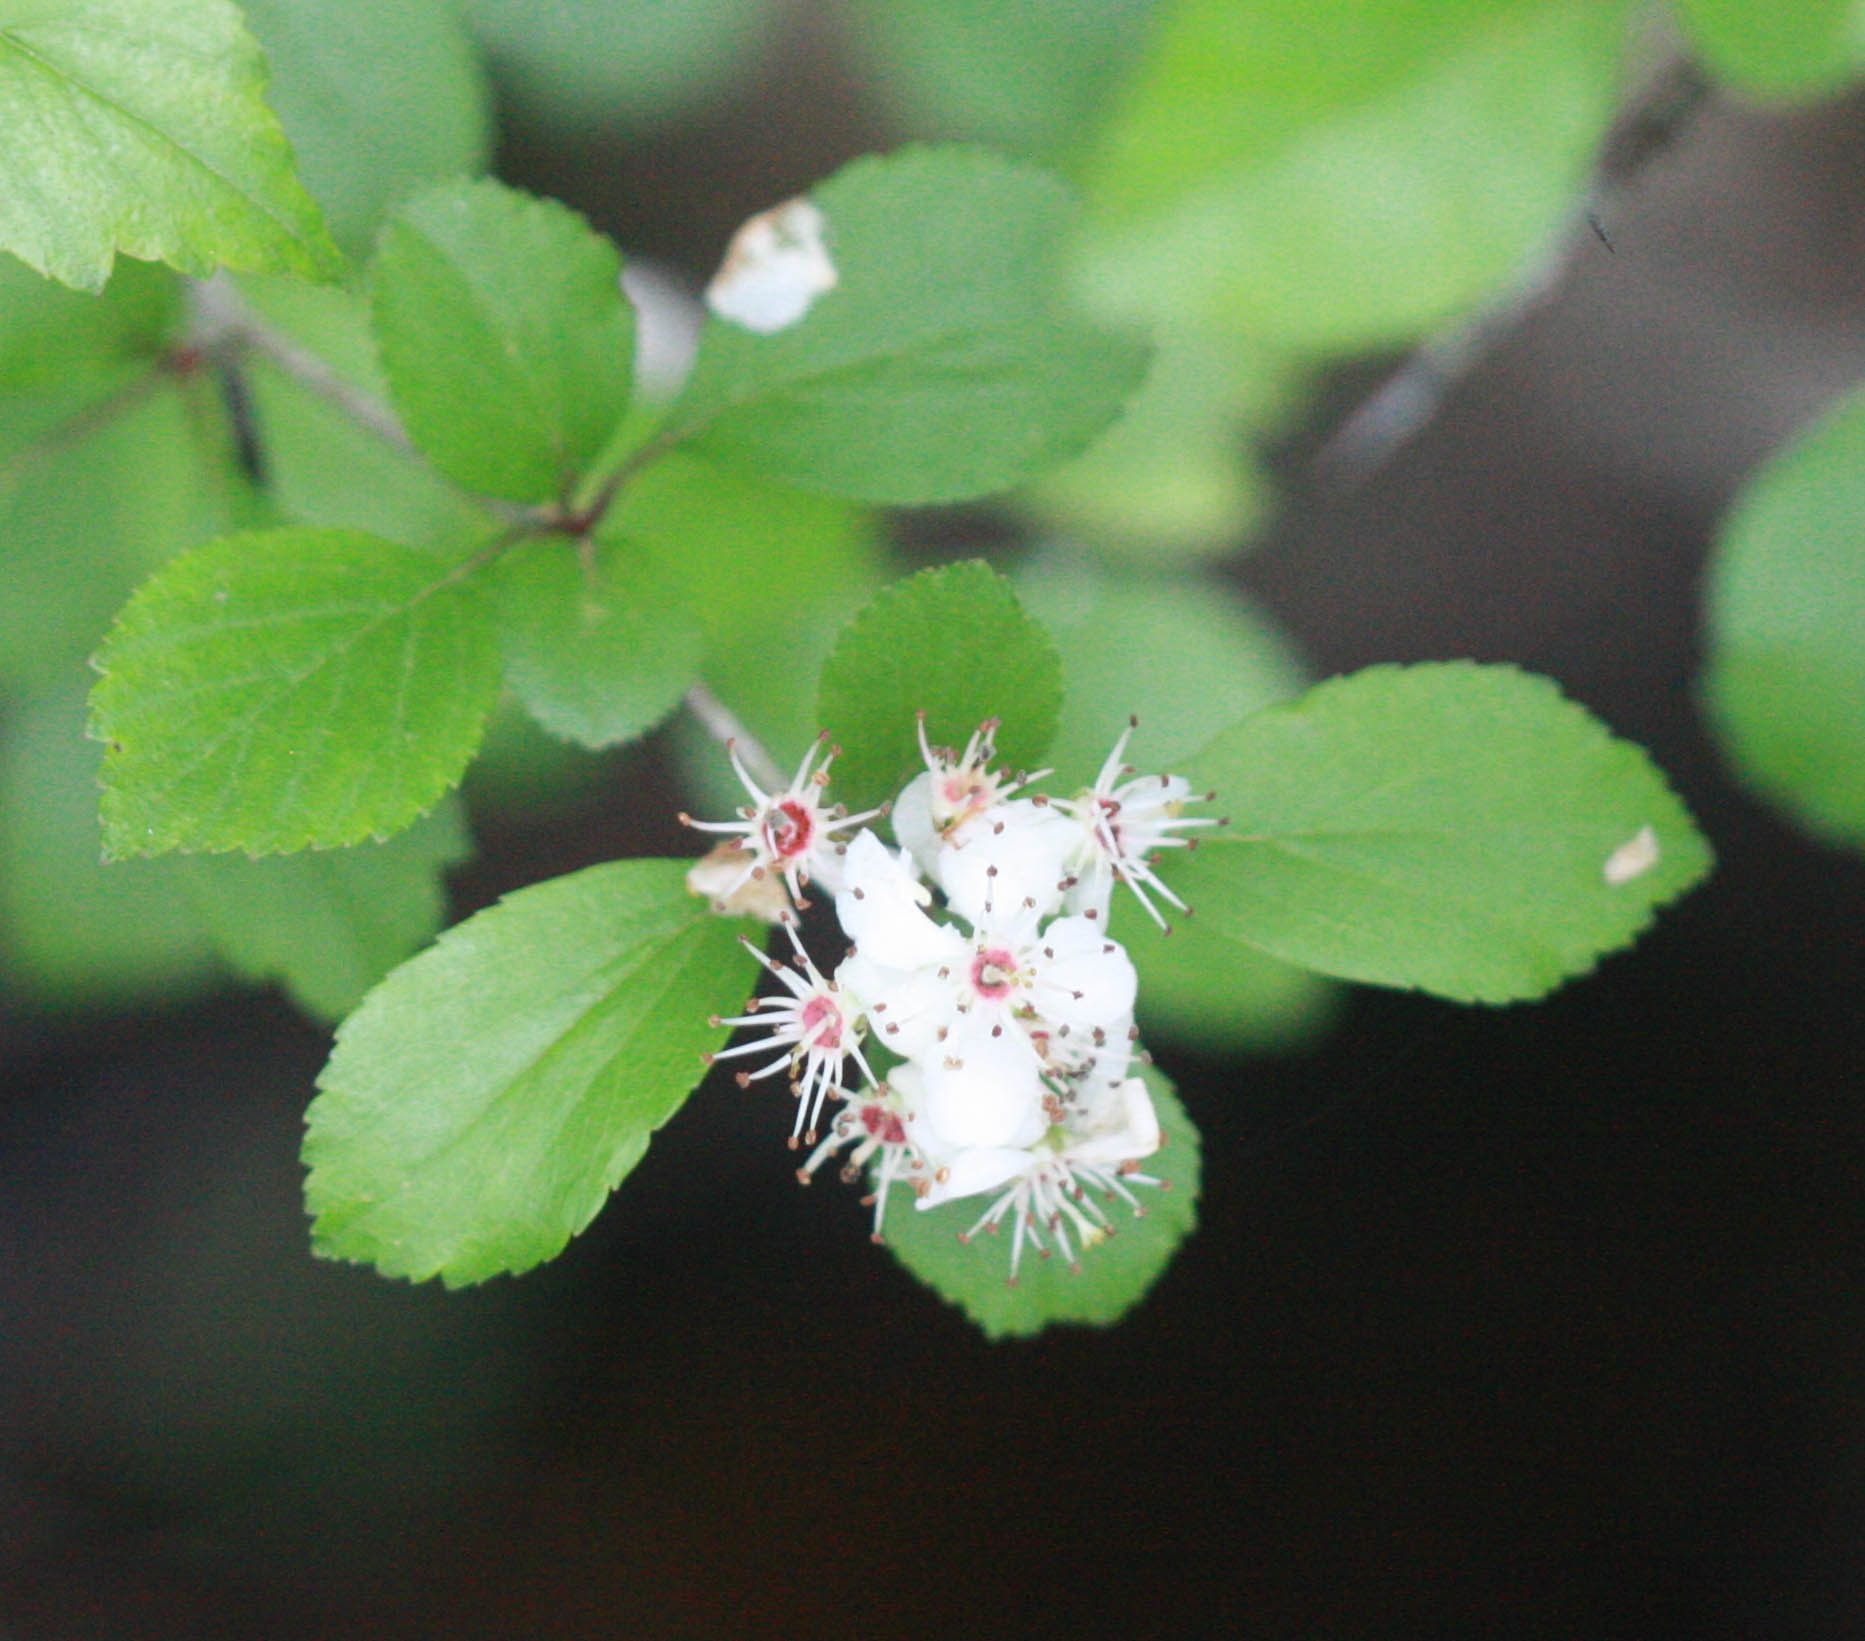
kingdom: Plantae
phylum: Tracheophyta
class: Magnoliopsida
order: Rosales
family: Rosaceae
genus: Crataegus
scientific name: Crataegus viridis
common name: Southernthorn
